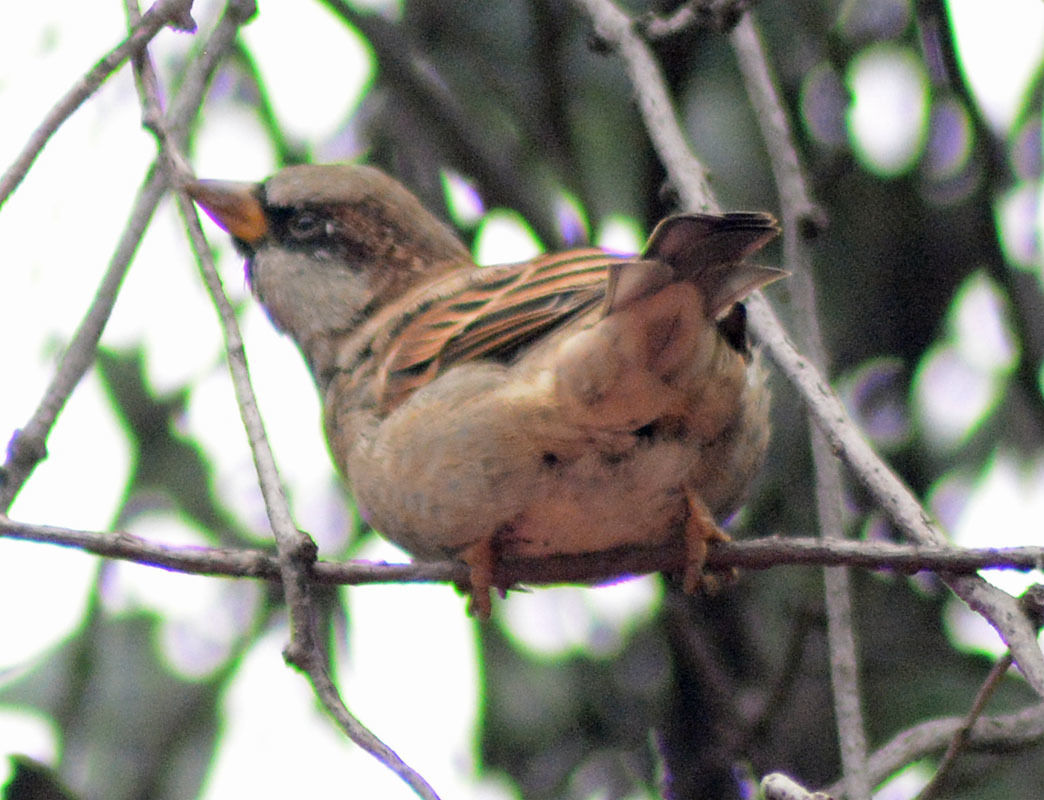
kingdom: Animalia
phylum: Chordata
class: Aves
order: Passeriformes
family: Passeridae
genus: Passer
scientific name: Passer domesticus
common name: House sparrow
